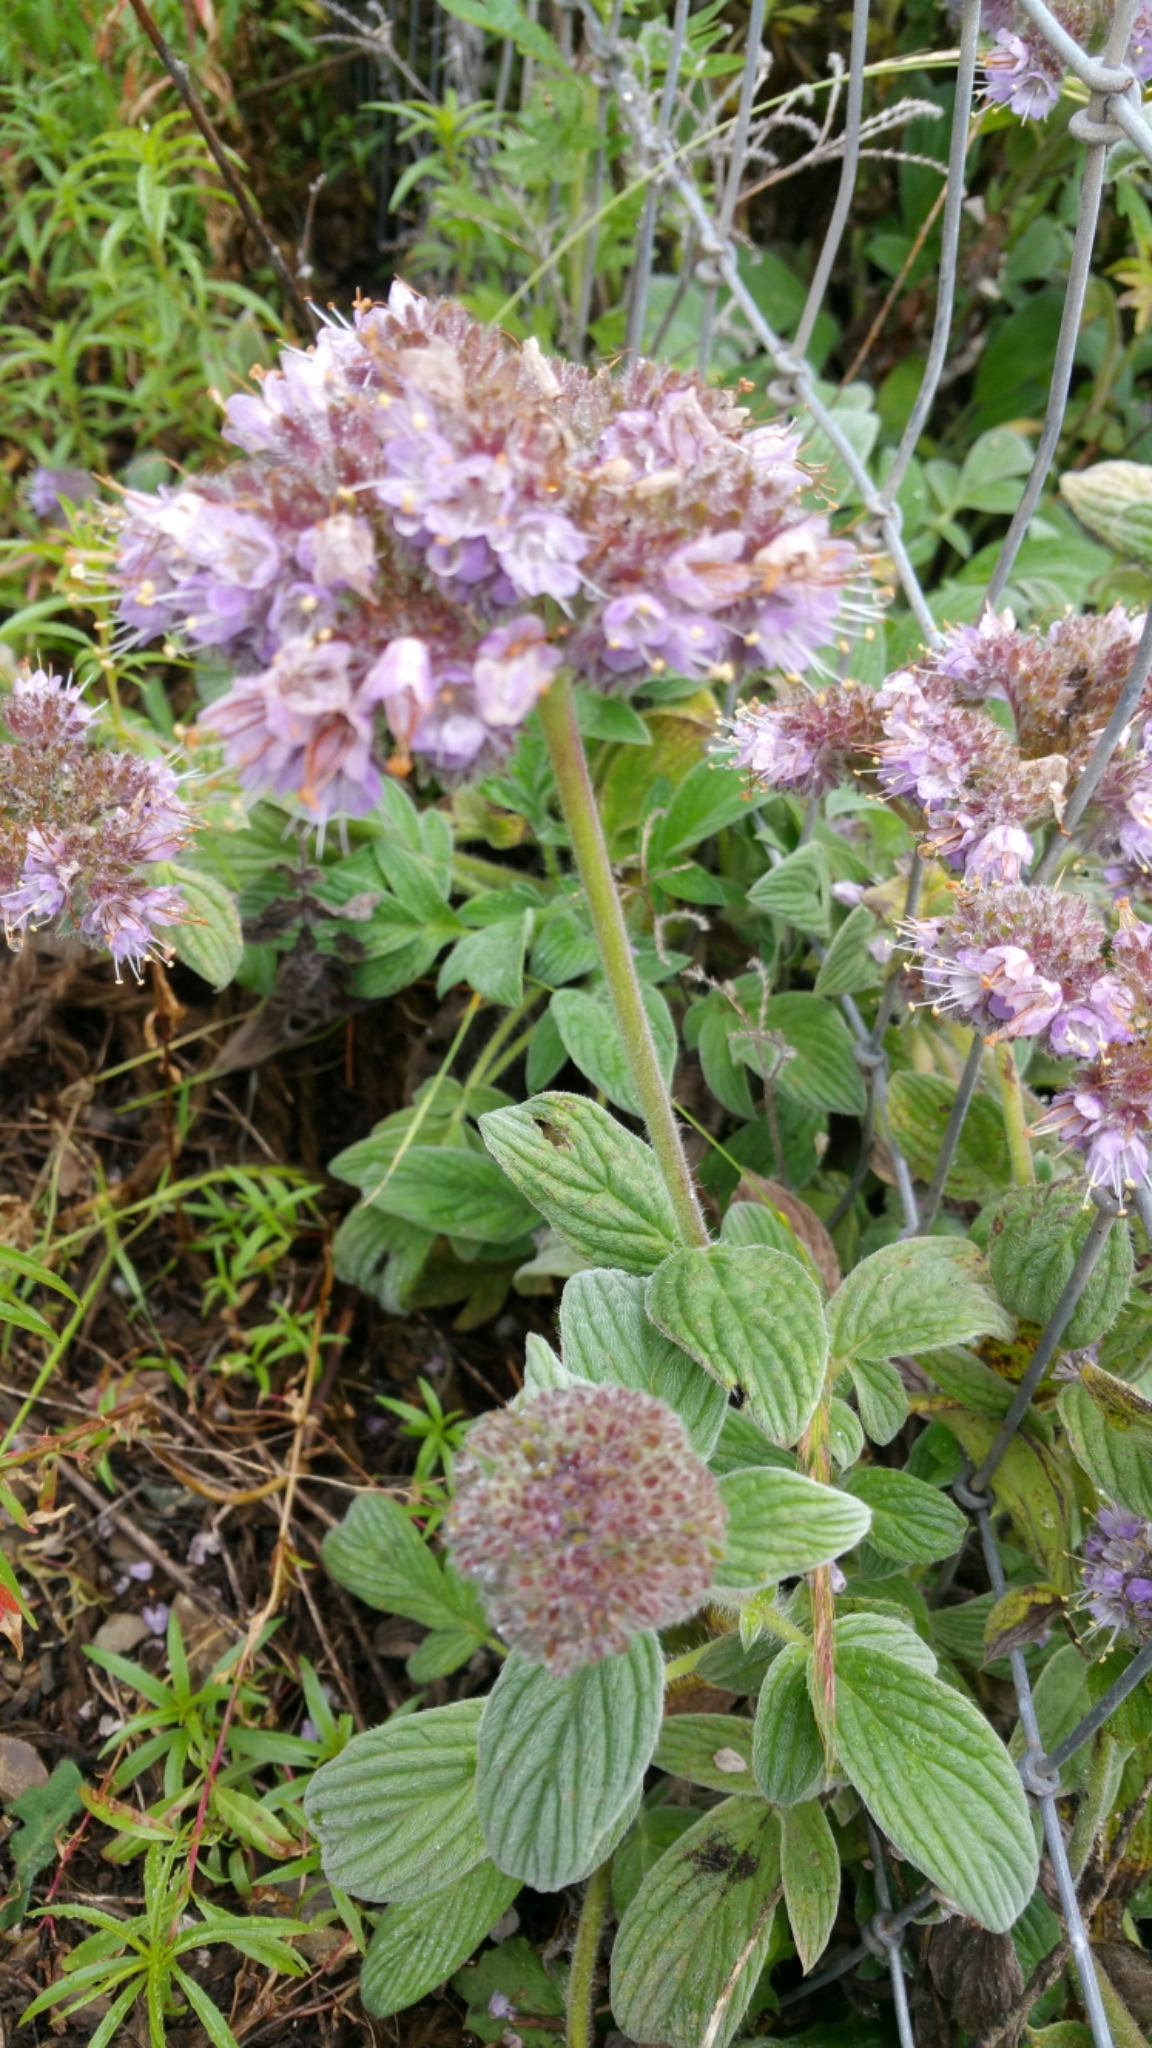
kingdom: Plantae
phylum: Tracheophyta
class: Magnoliopsida
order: Boraginales
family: Hydrophyllaceae
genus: Phacelia
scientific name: Phacelia californica
